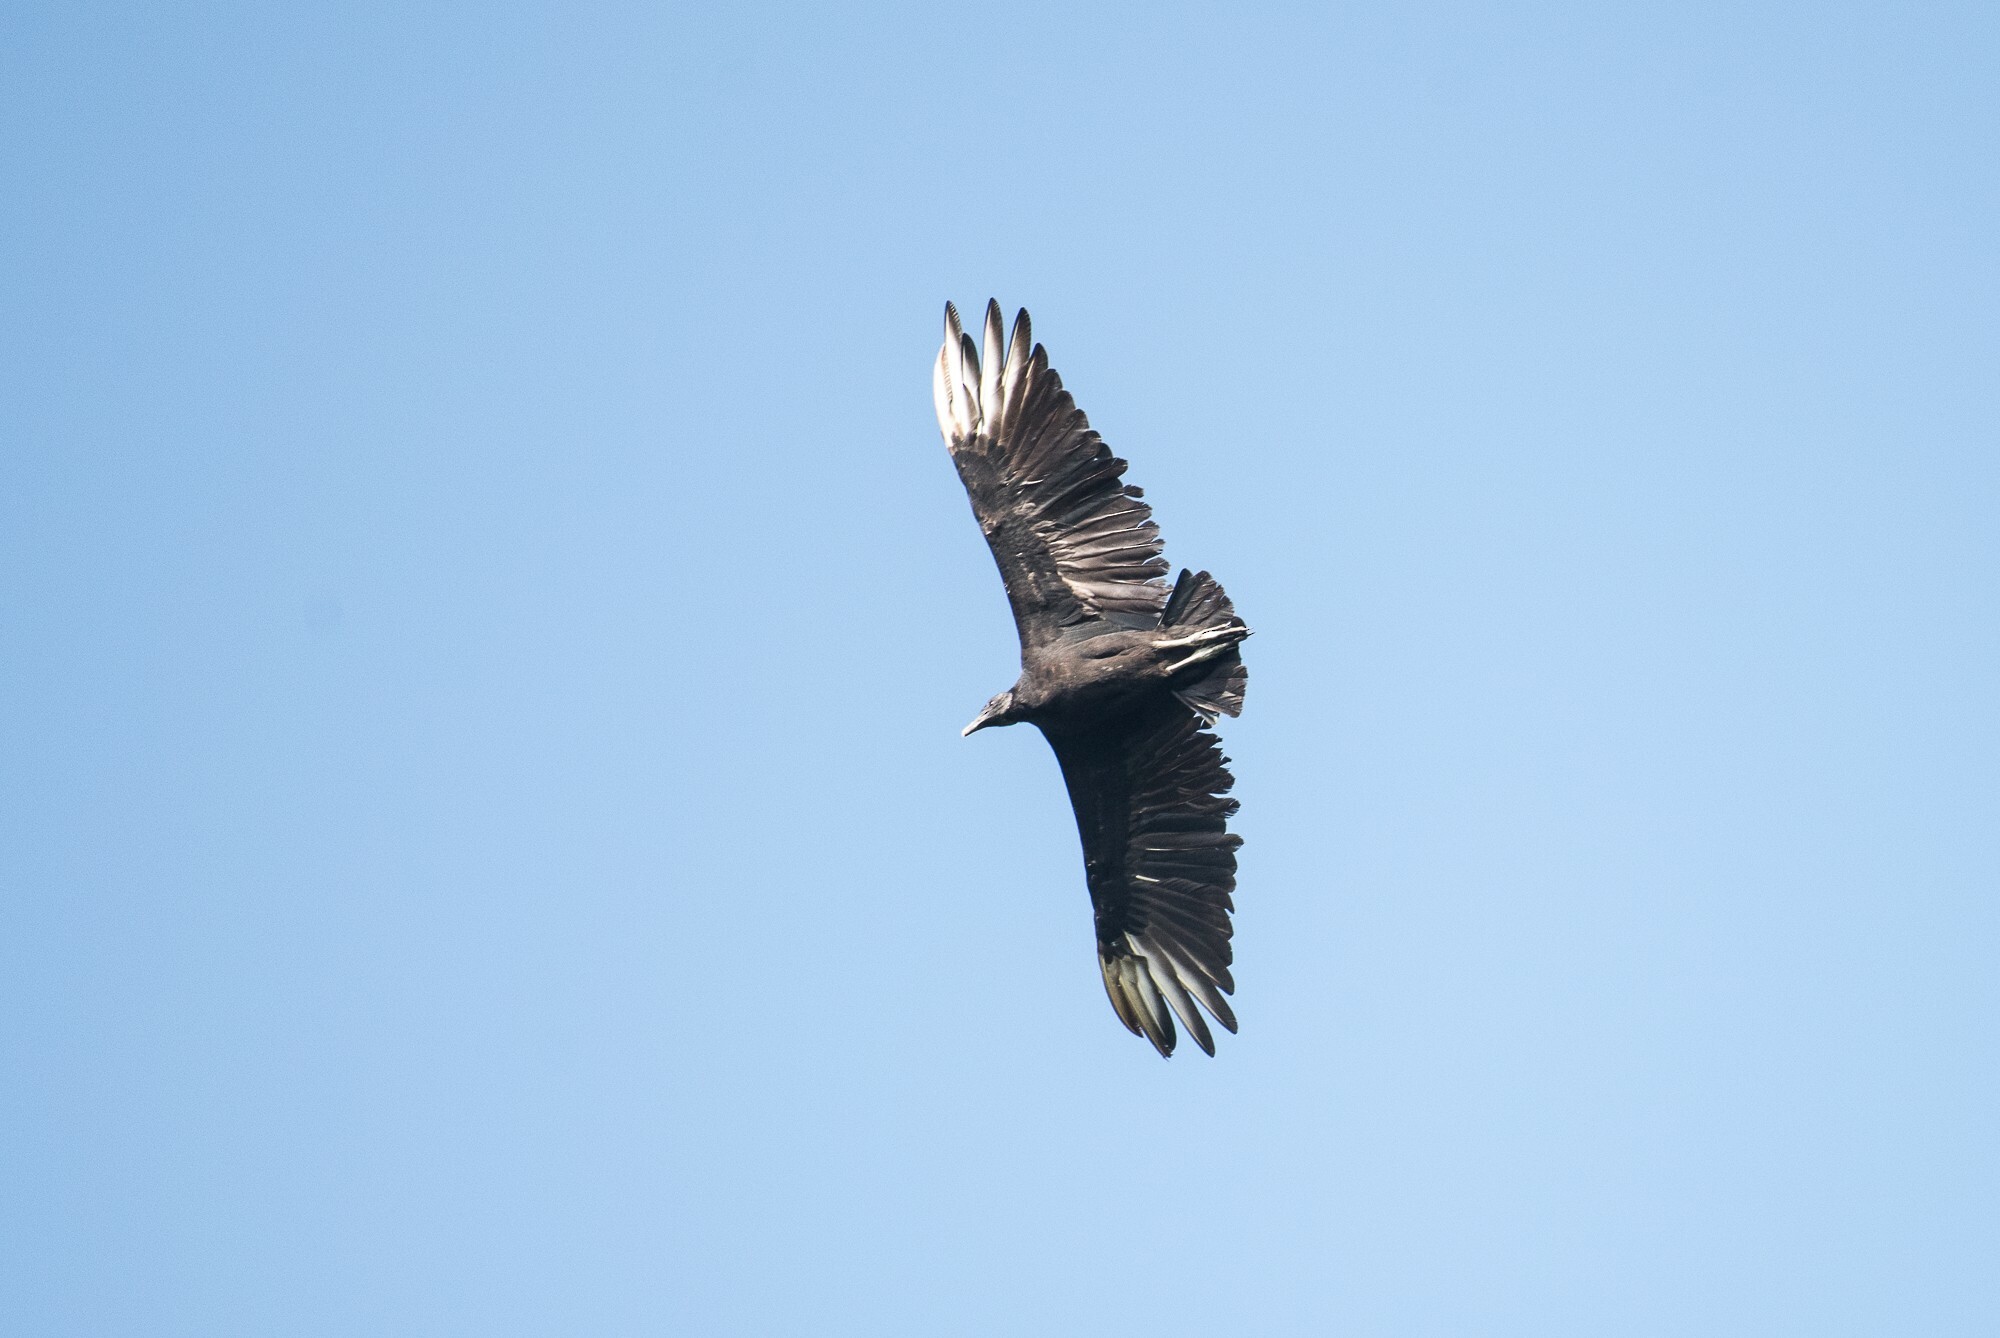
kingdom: Animalia
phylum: Chordata
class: Aves
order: Accipitriformes
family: Cathartidae
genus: Coragyps
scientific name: Coragyps atratus
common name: Black vulture
